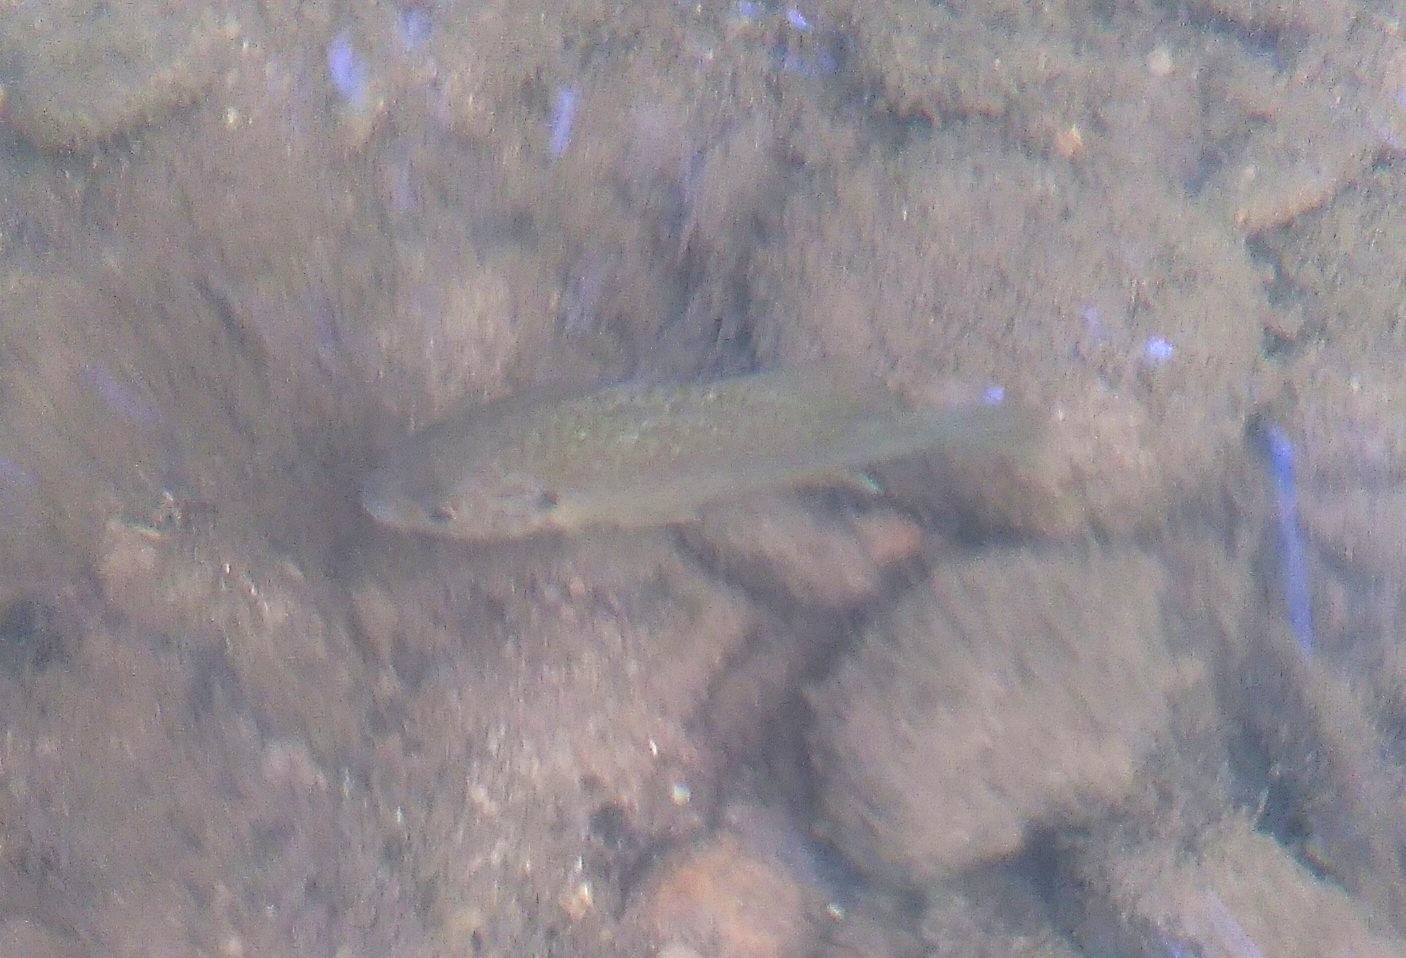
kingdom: Animalia
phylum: Chordata
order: Perciformes
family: Centrarchidae
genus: Lepomis
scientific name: Lepomis gibbosus
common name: Pumpkinseed
